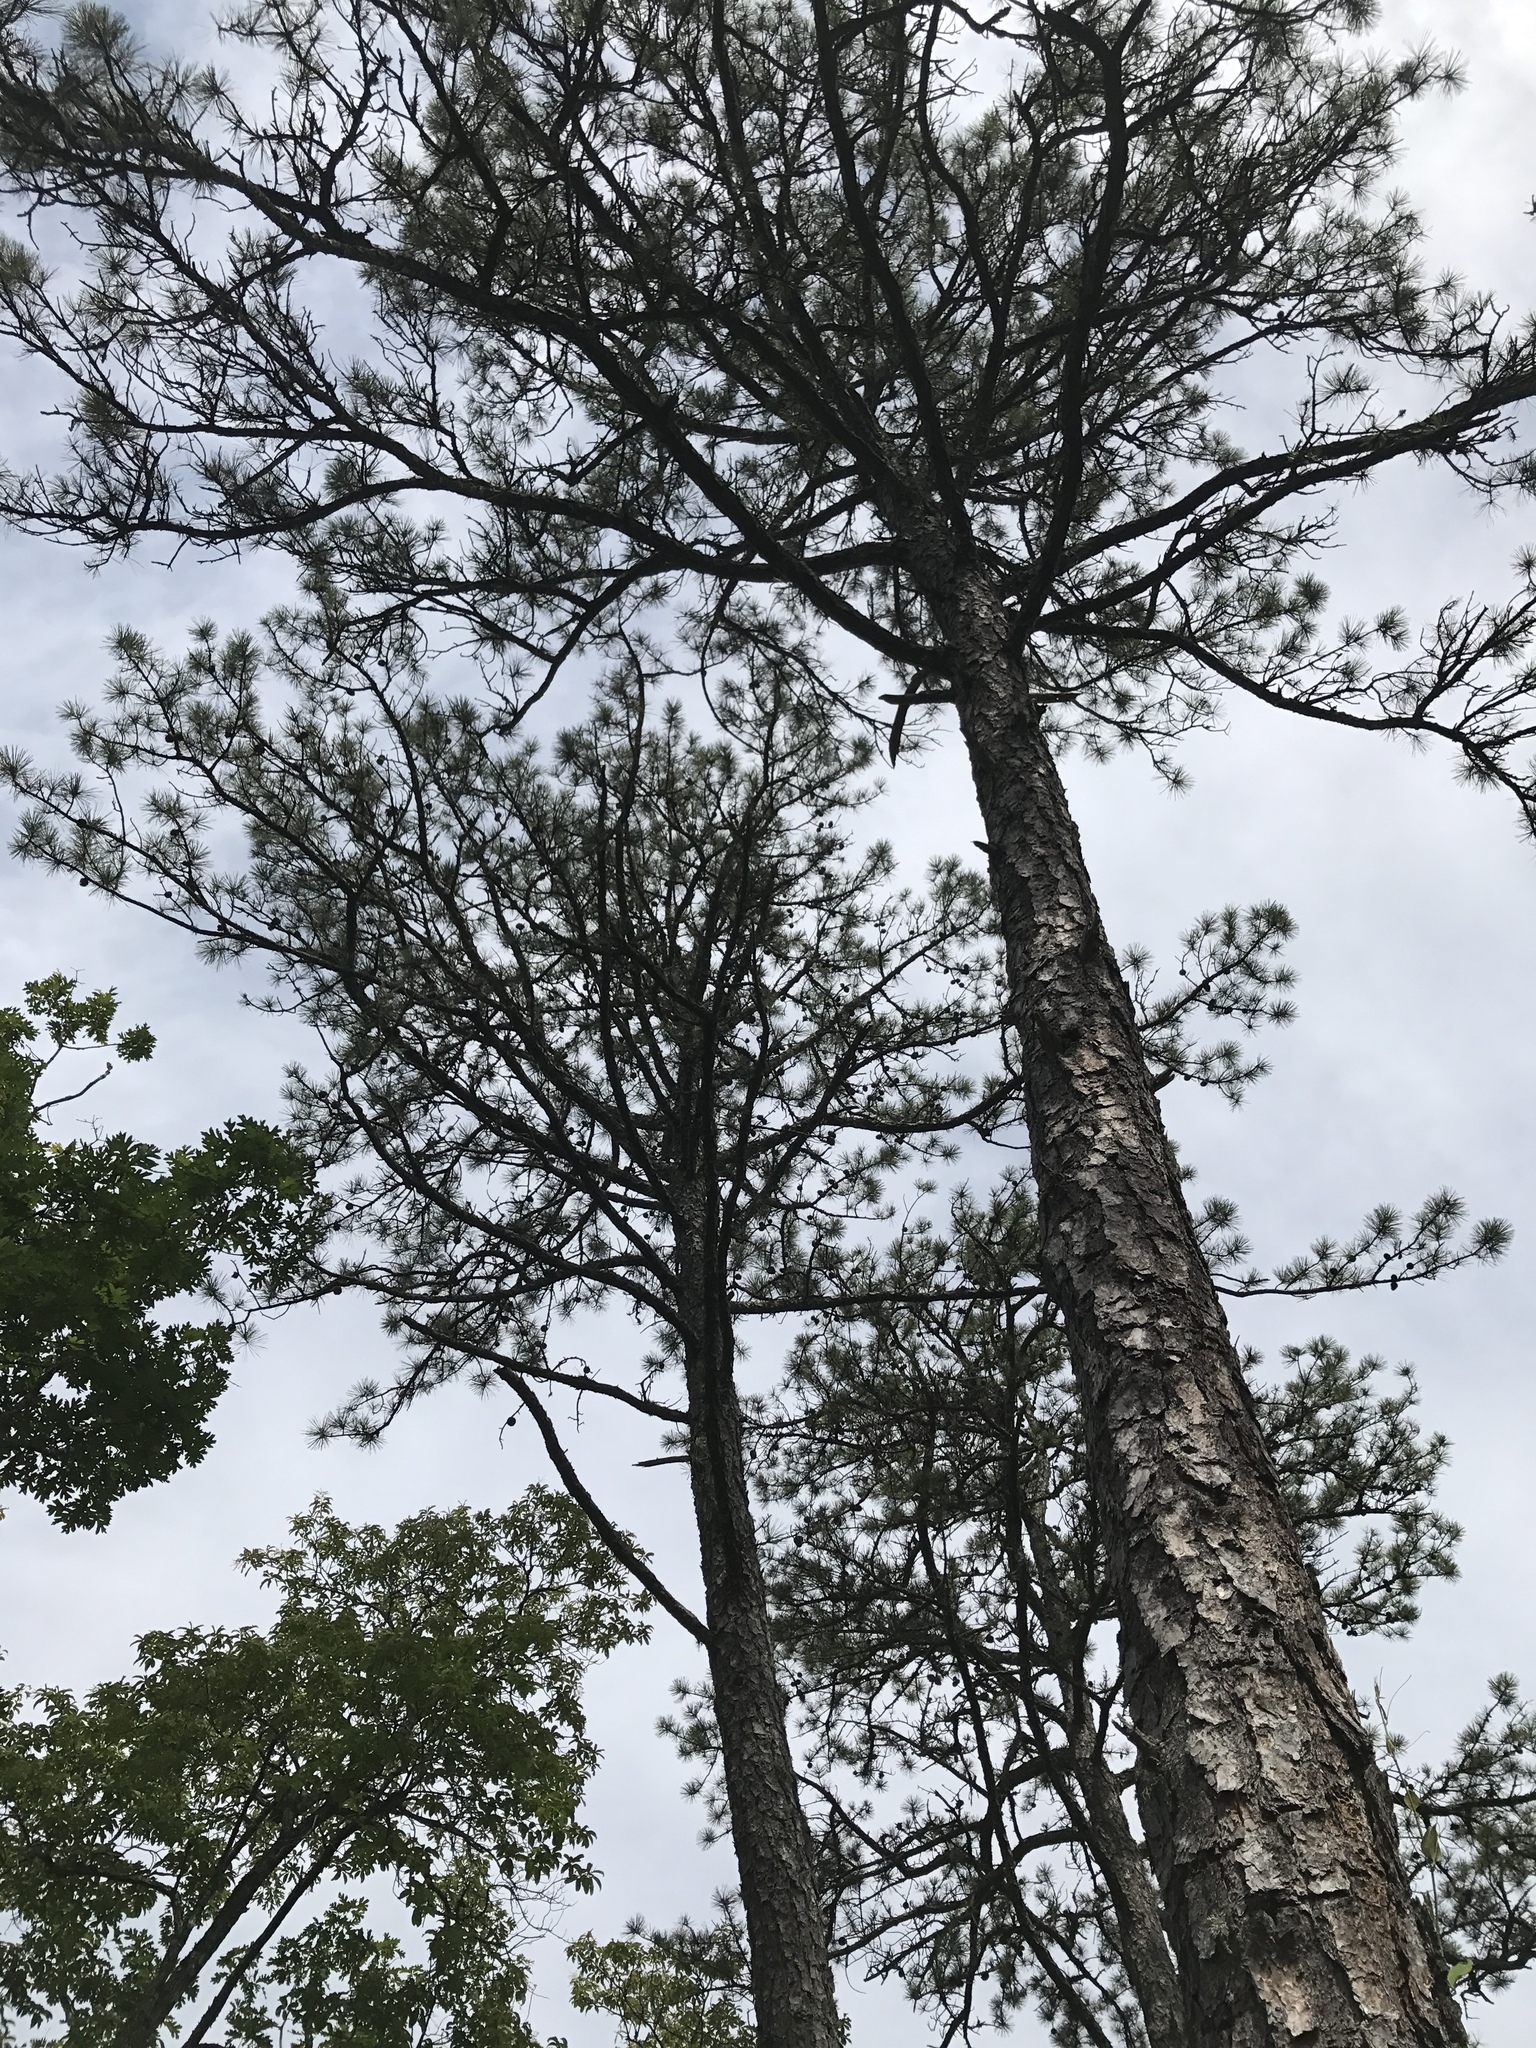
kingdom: Plantae
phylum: Tracheophyta
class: Pinopsida
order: Pinales
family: Pinaceae
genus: Pinus
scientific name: Pinus rigida
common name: Pitch pine
